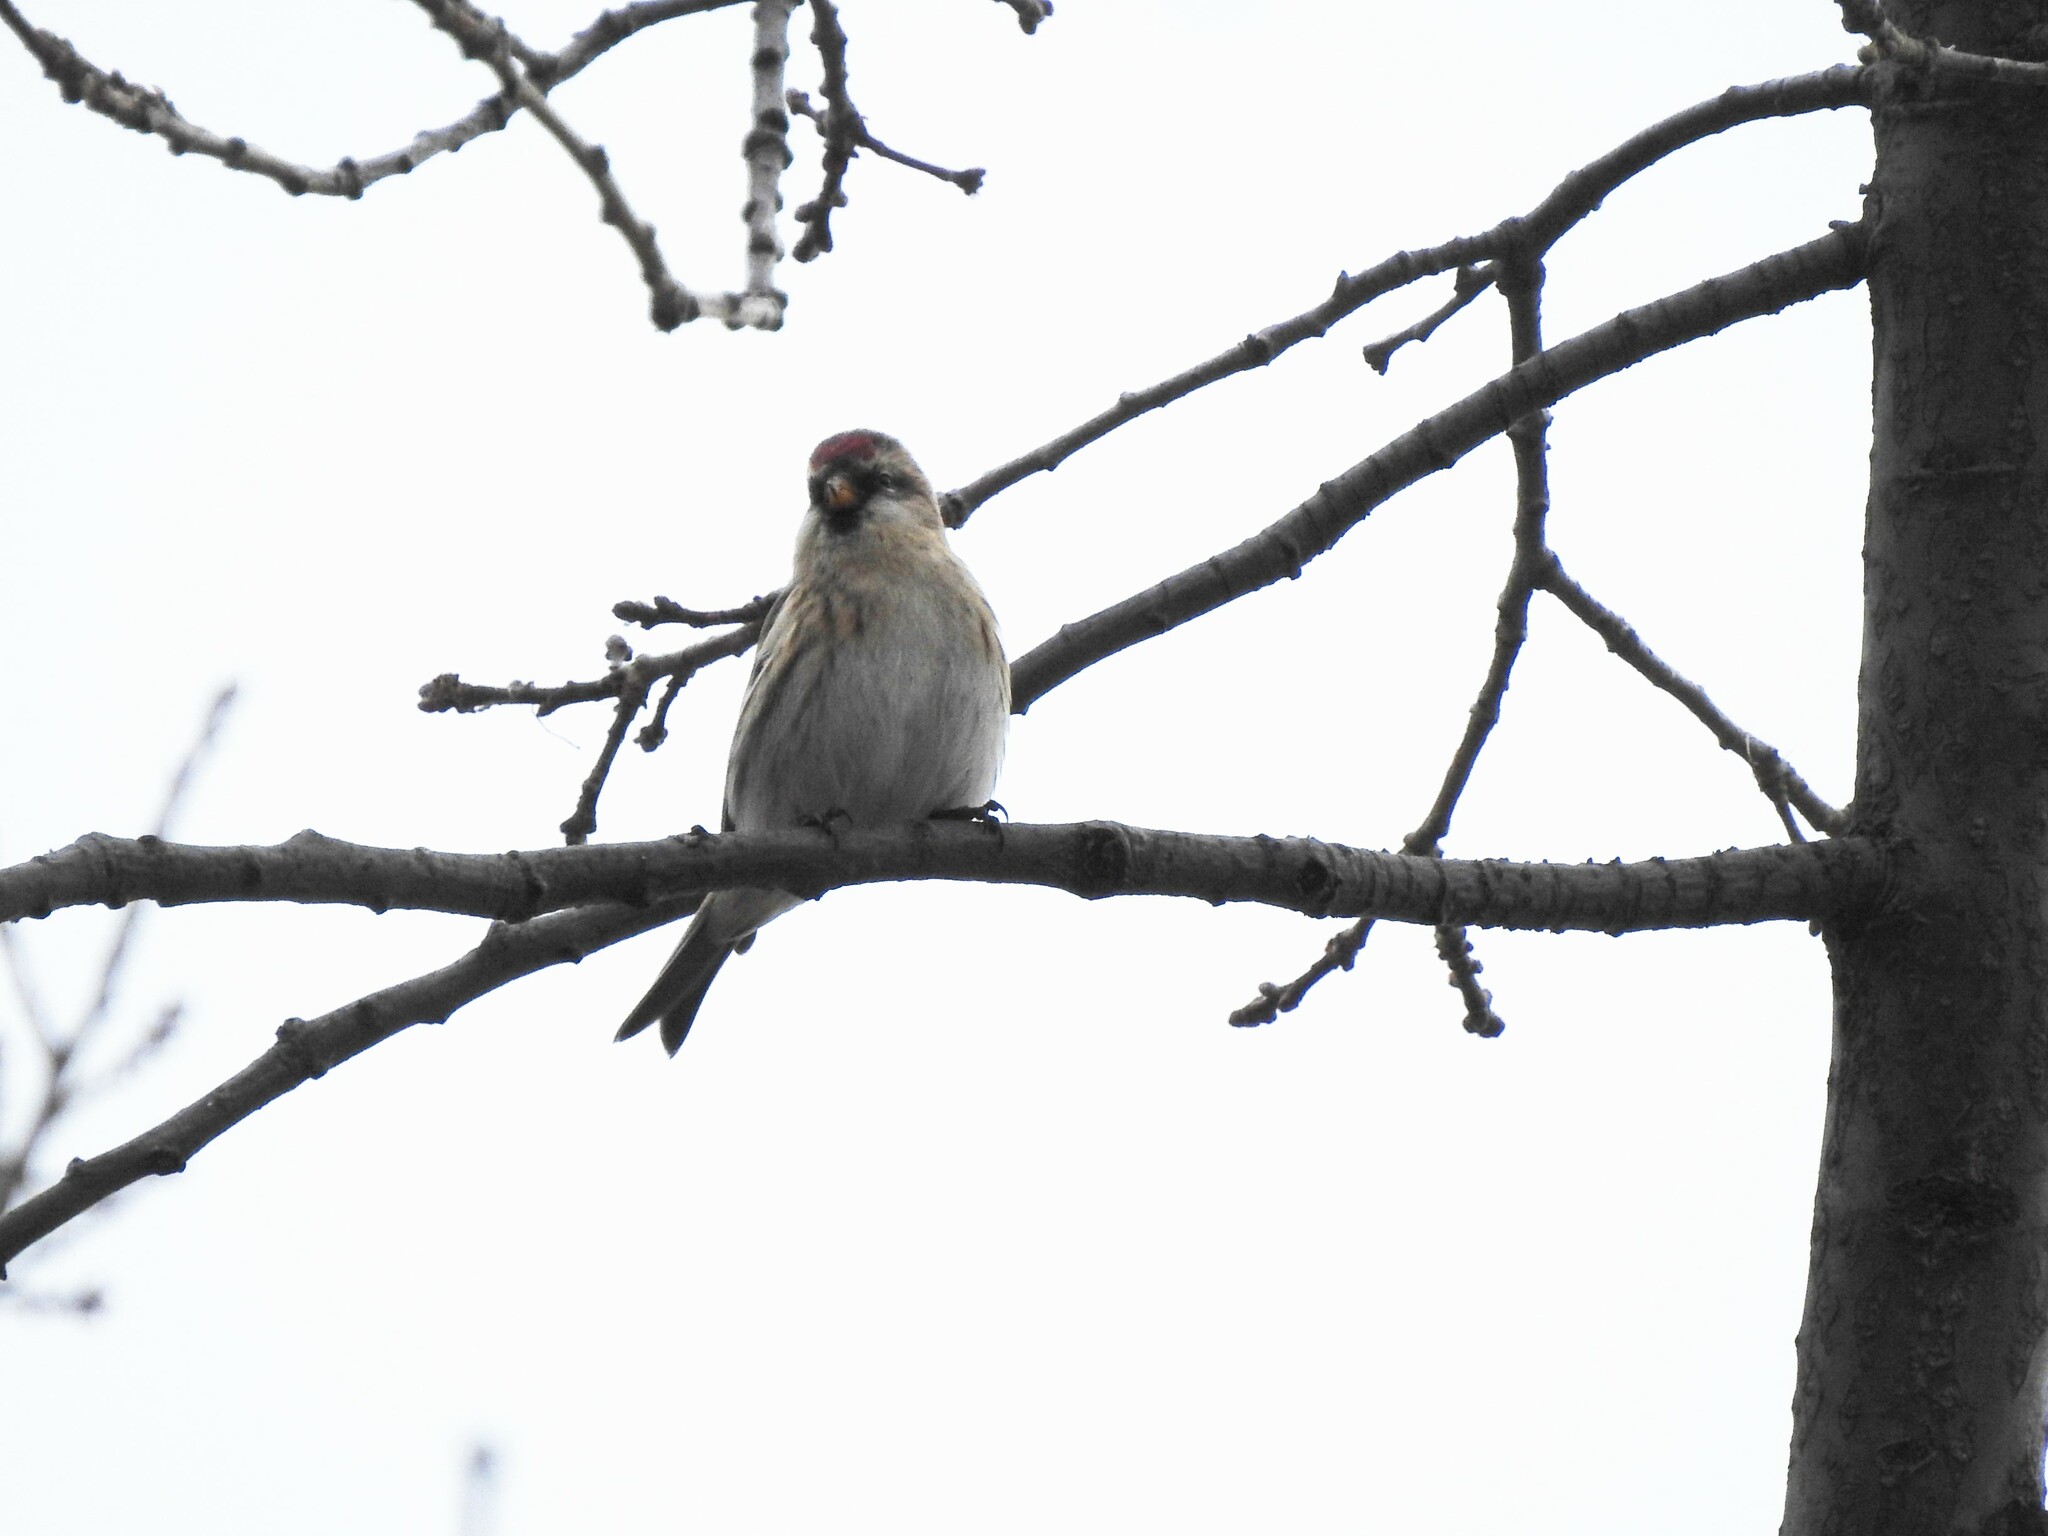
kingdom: Animalia
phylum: Chordata
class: Aves
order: Passeriformes
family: Fringillidae
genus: Acanthis
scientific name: Acanthis hornemanni
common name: Arctic redpoll
